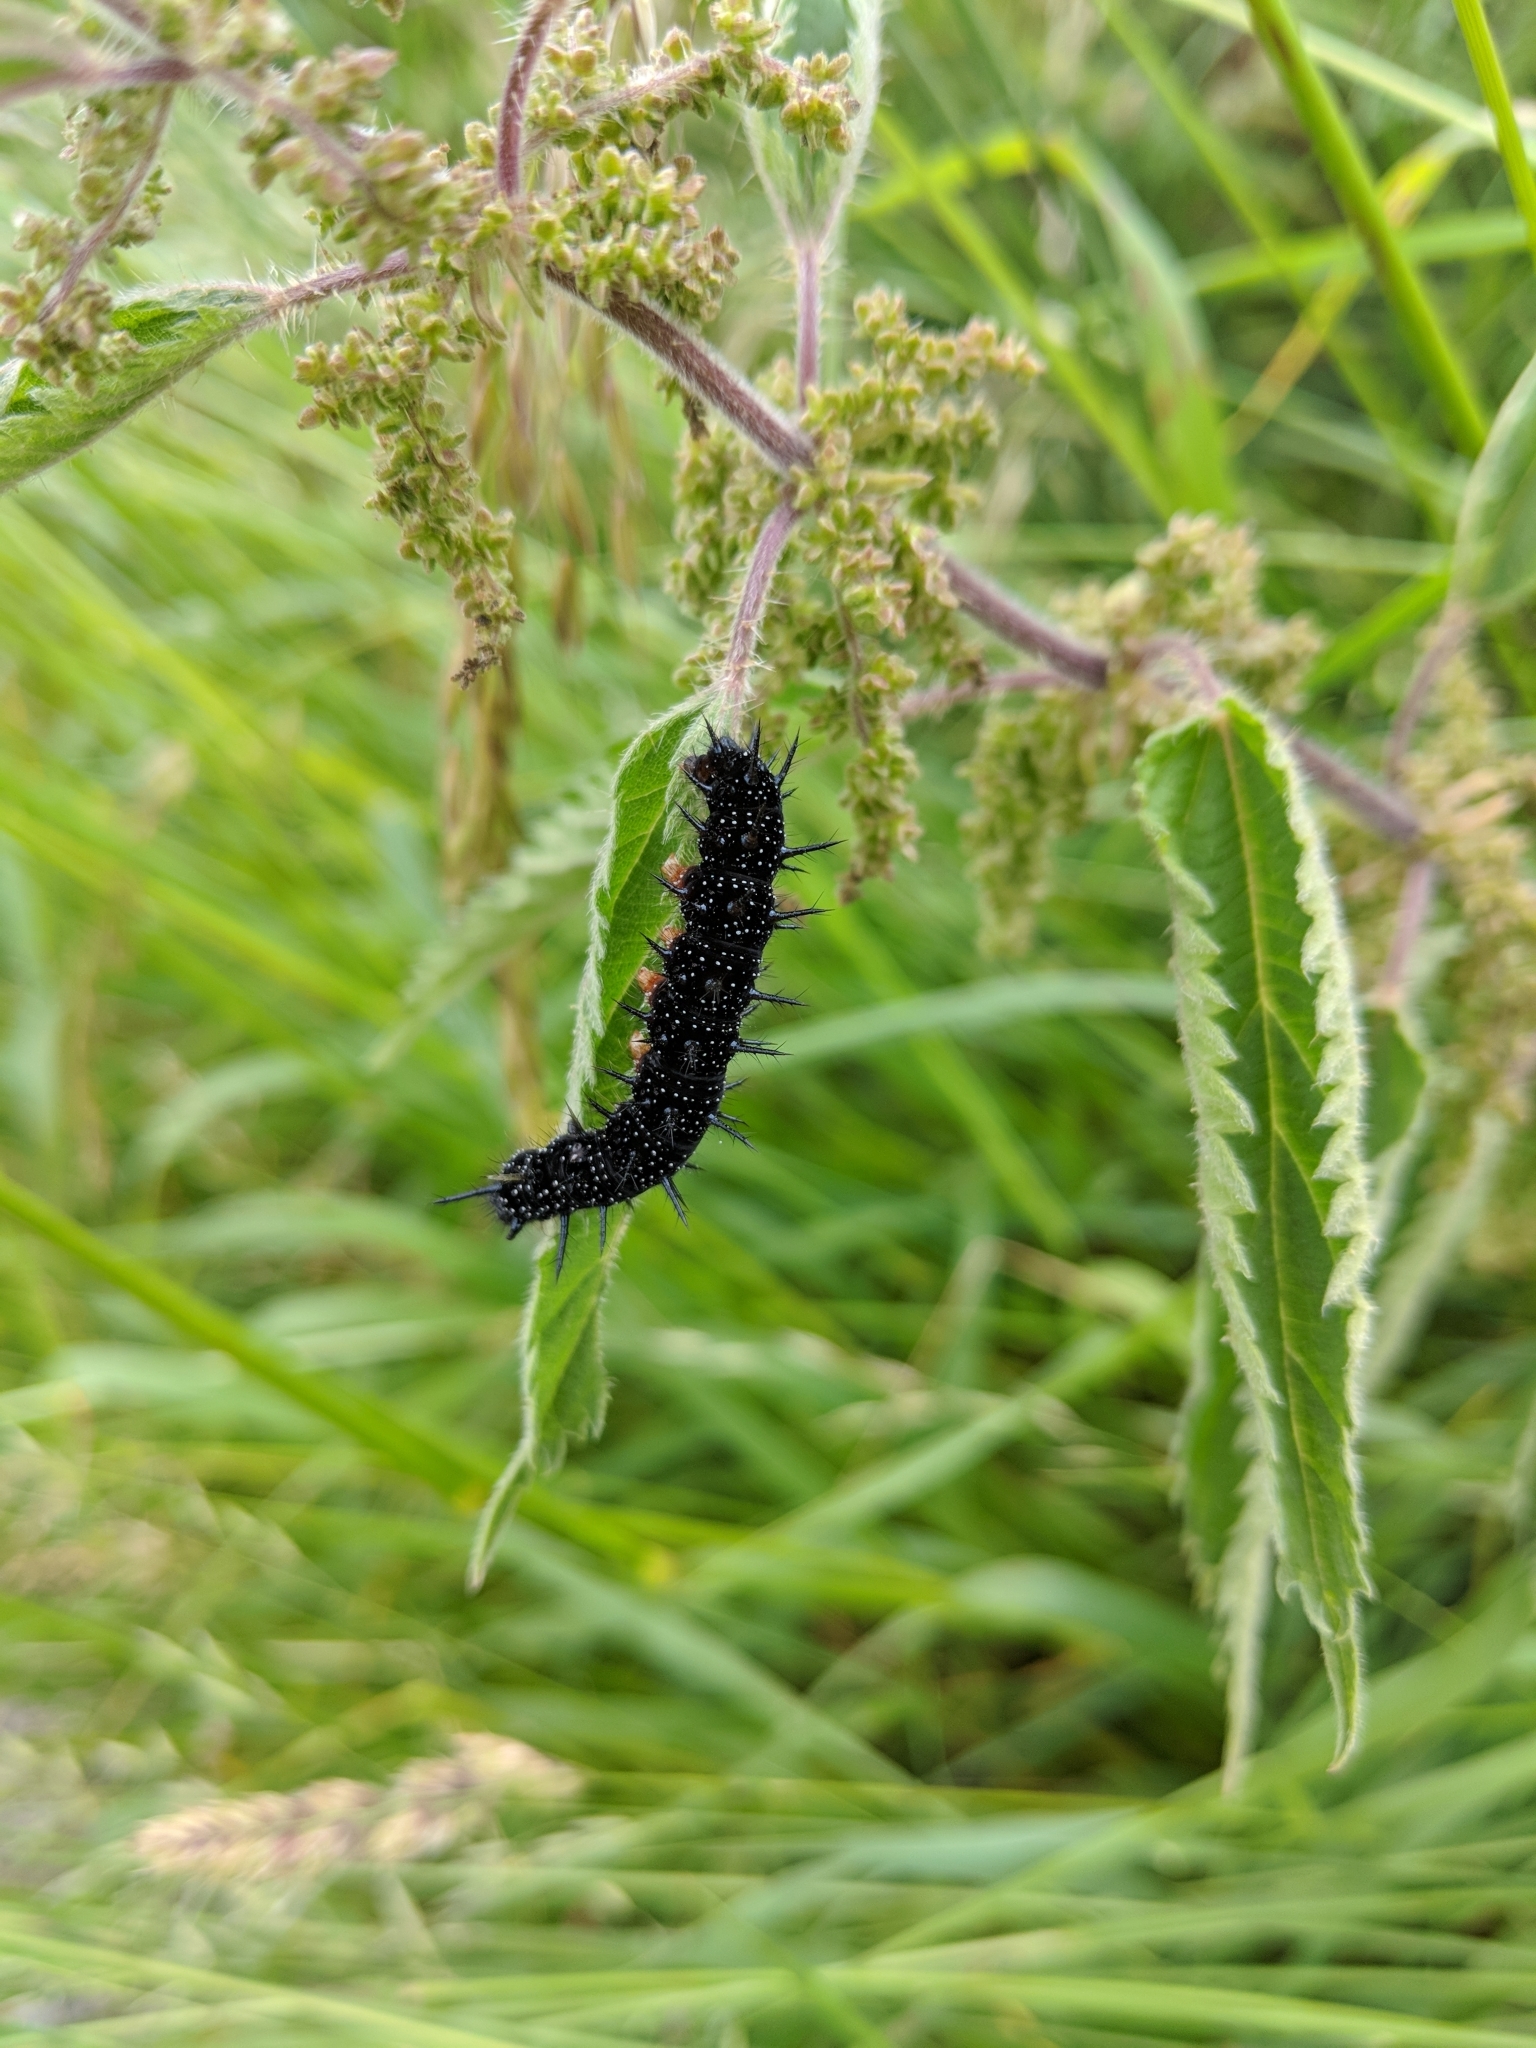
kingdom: Animalia
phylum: Arthropoda
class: Insecta
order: Lepidoptera
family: Nymphalidae
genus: Aglais
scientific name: Aglais io
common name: Peacock
